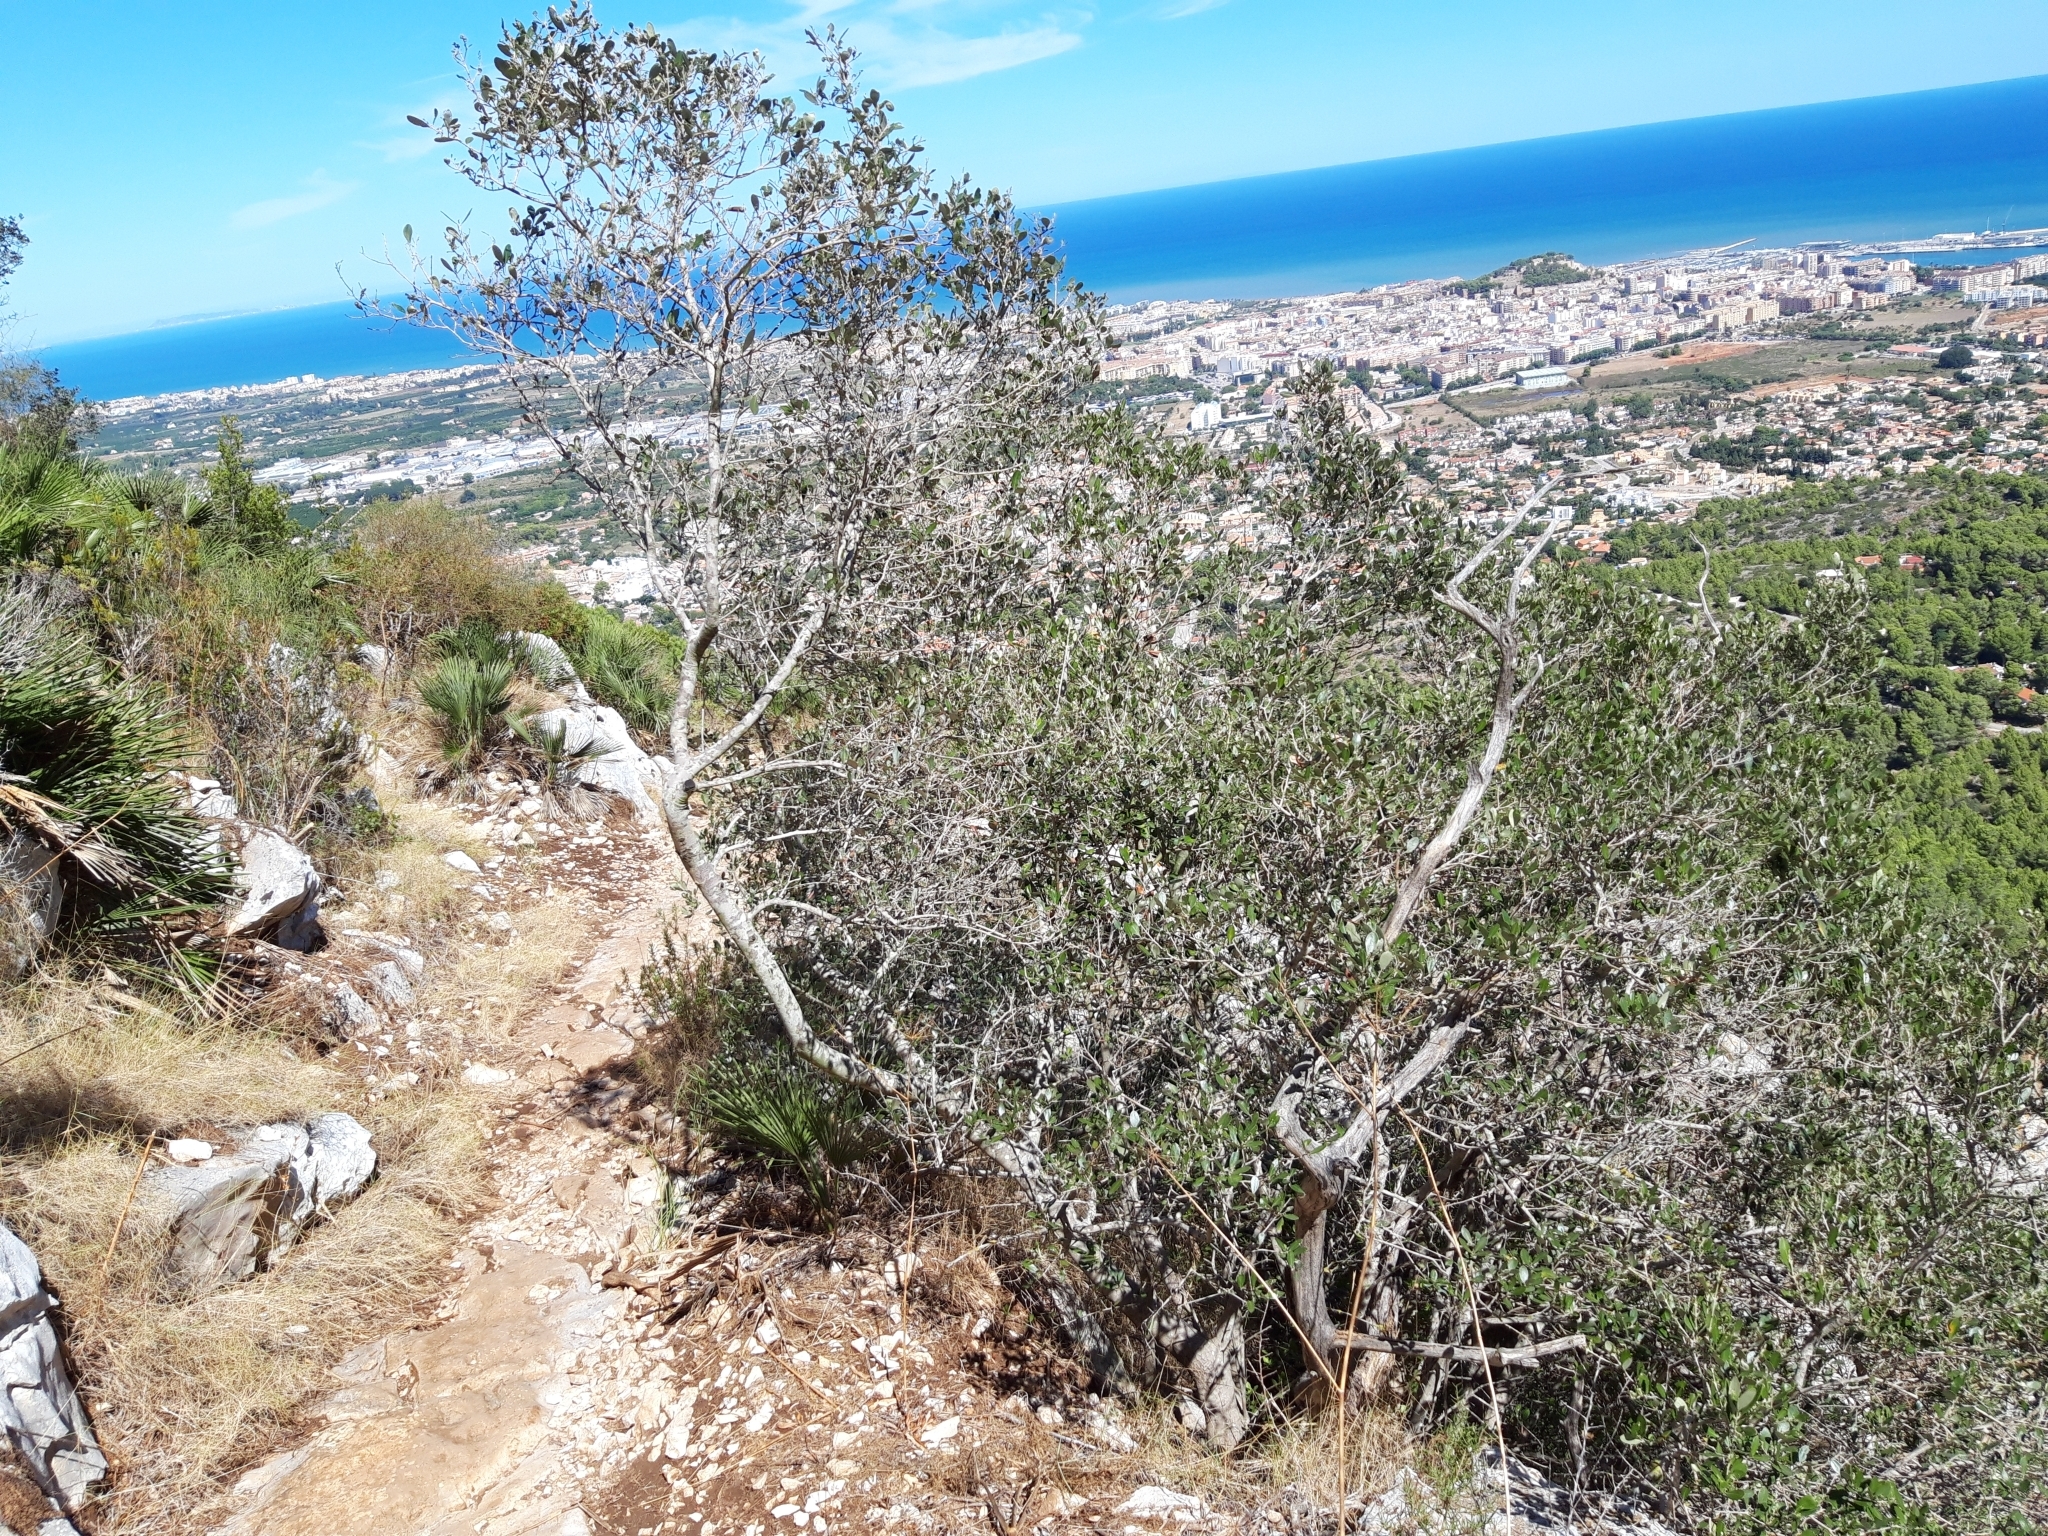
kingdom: Plantae
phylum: Tracheophyta
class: Magnoliopsida
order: Lamiales
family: Oleaceae
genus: Olea
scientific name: Olea europaea
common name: Olive
